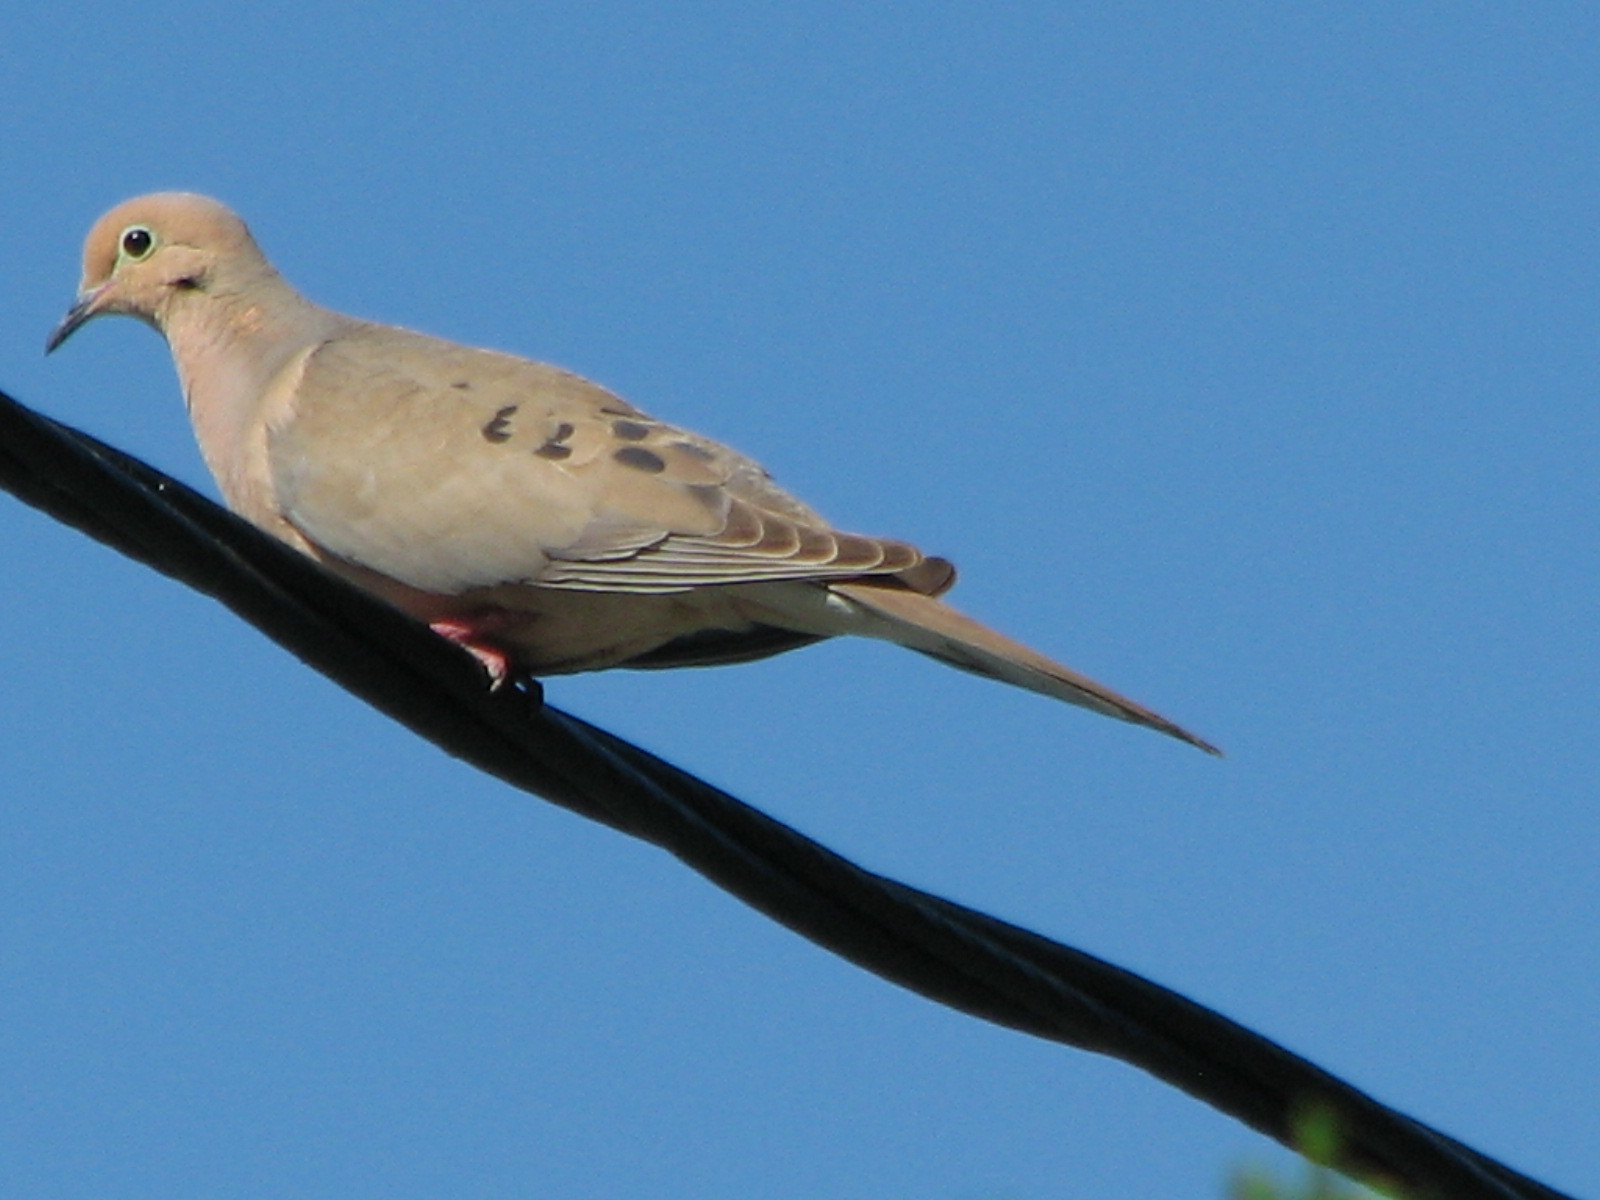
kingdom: Animalia
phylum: Chordata
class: Aves
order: Columbiformes
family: Columbidae
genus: Zenaida
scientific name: Zenaida macroura
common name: Mourning dove
